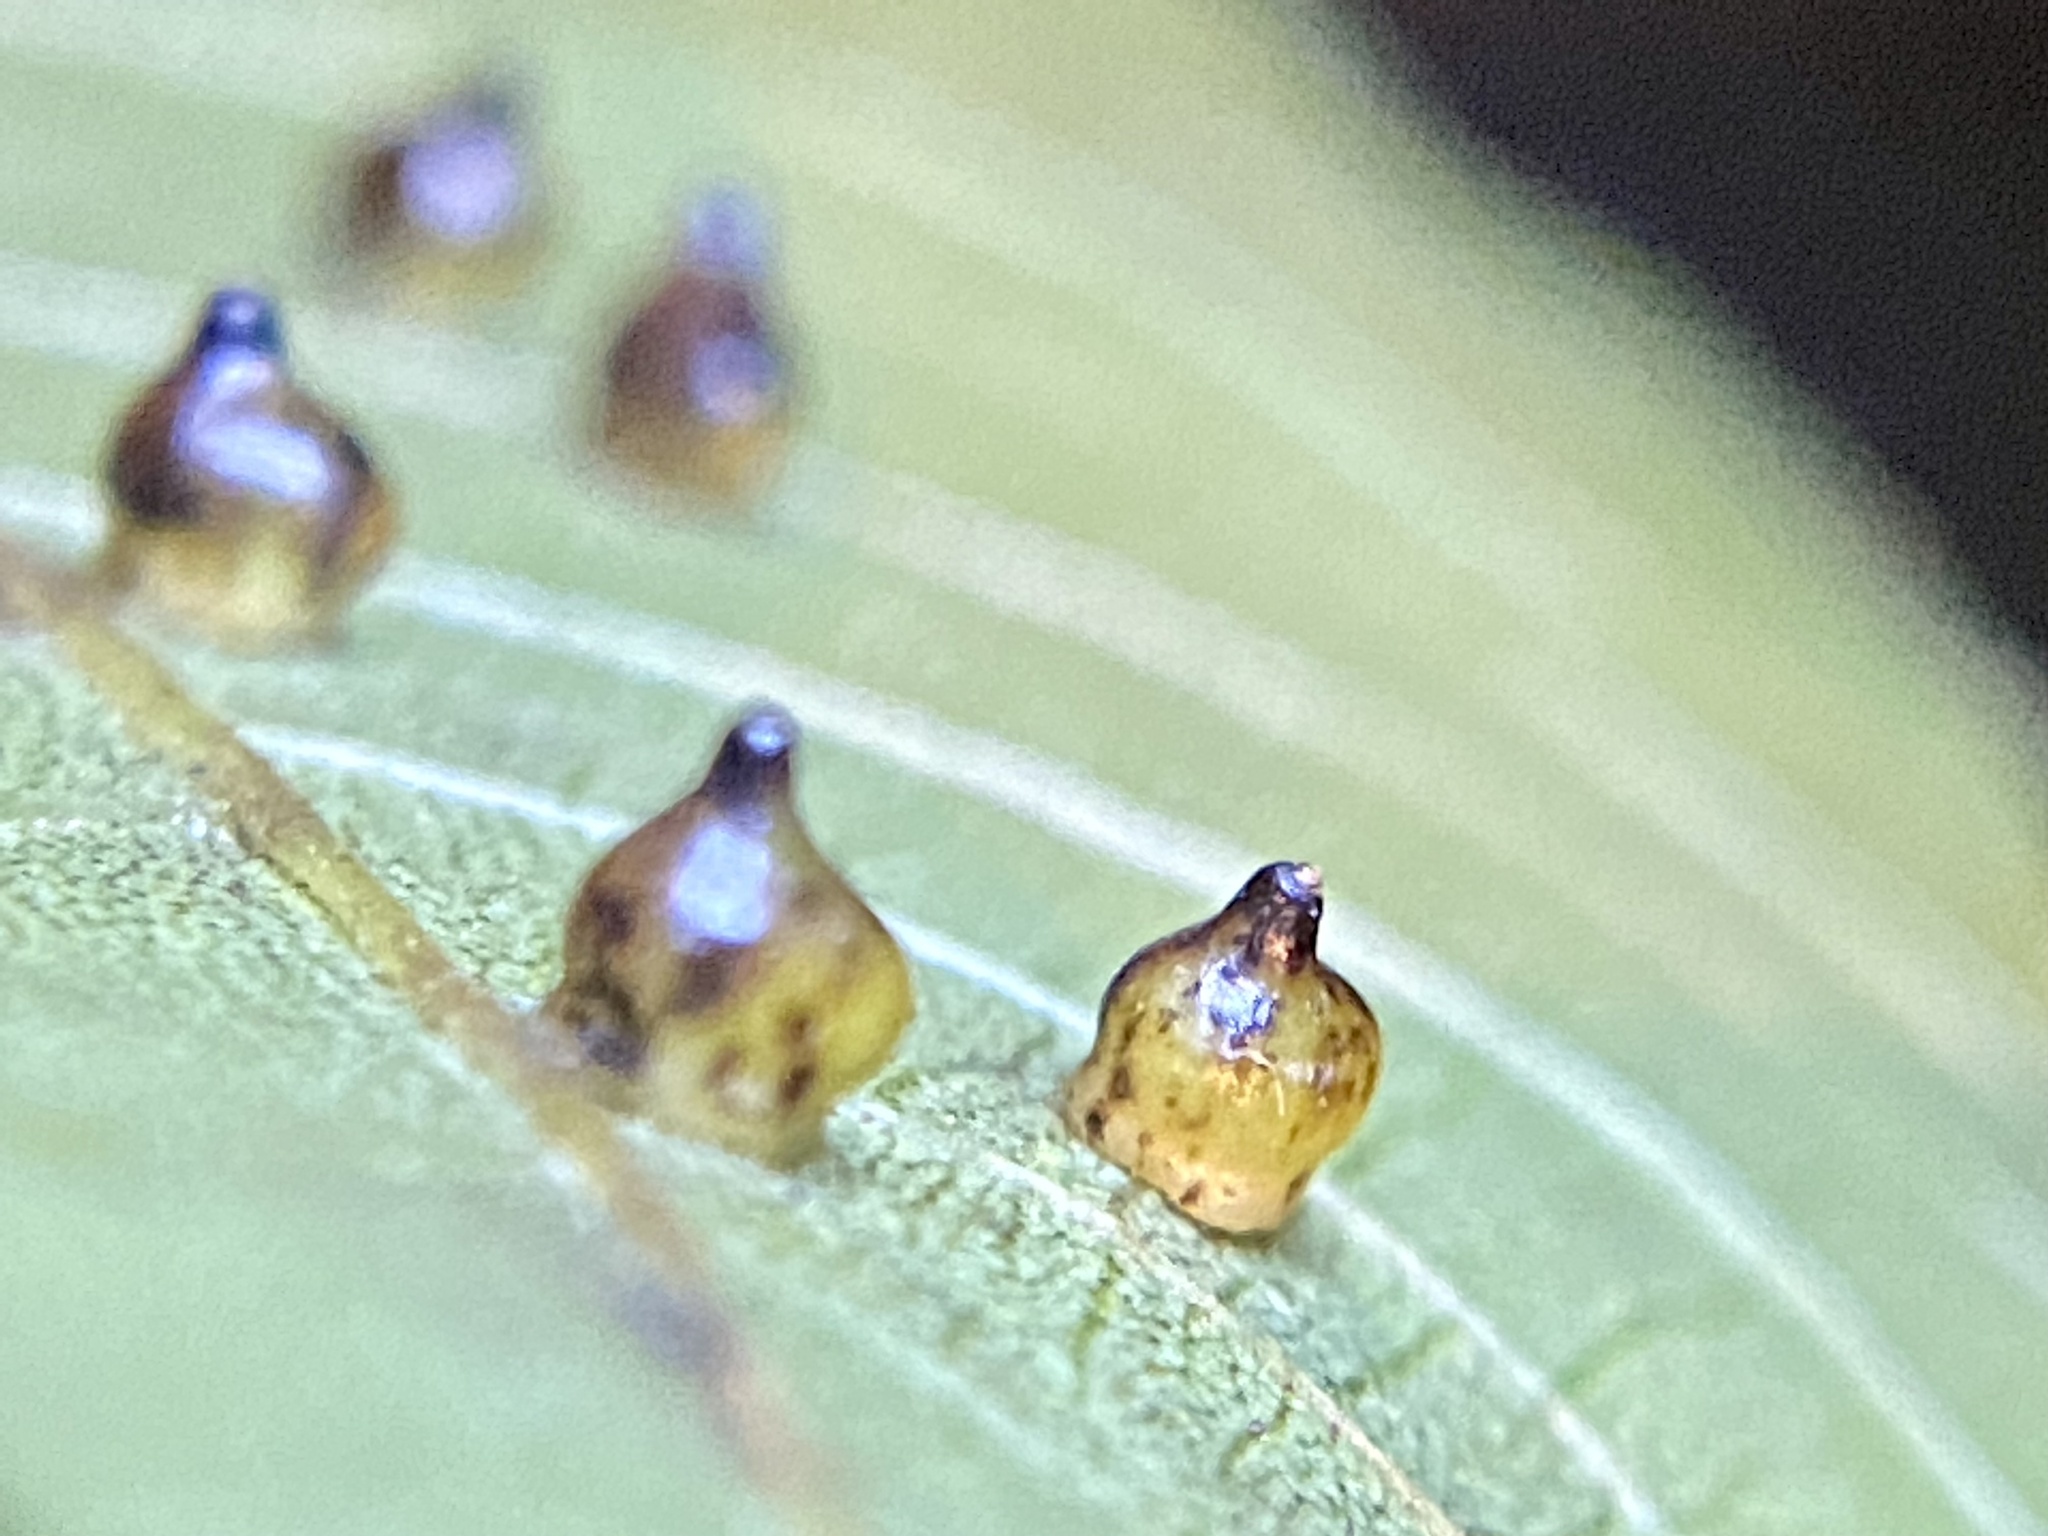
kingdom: Animalia
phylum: Arthropoda
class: Insecta
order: Diptera
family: Cecidomyiidae
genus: Caryomyia
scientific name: Caryomyia shmoo
